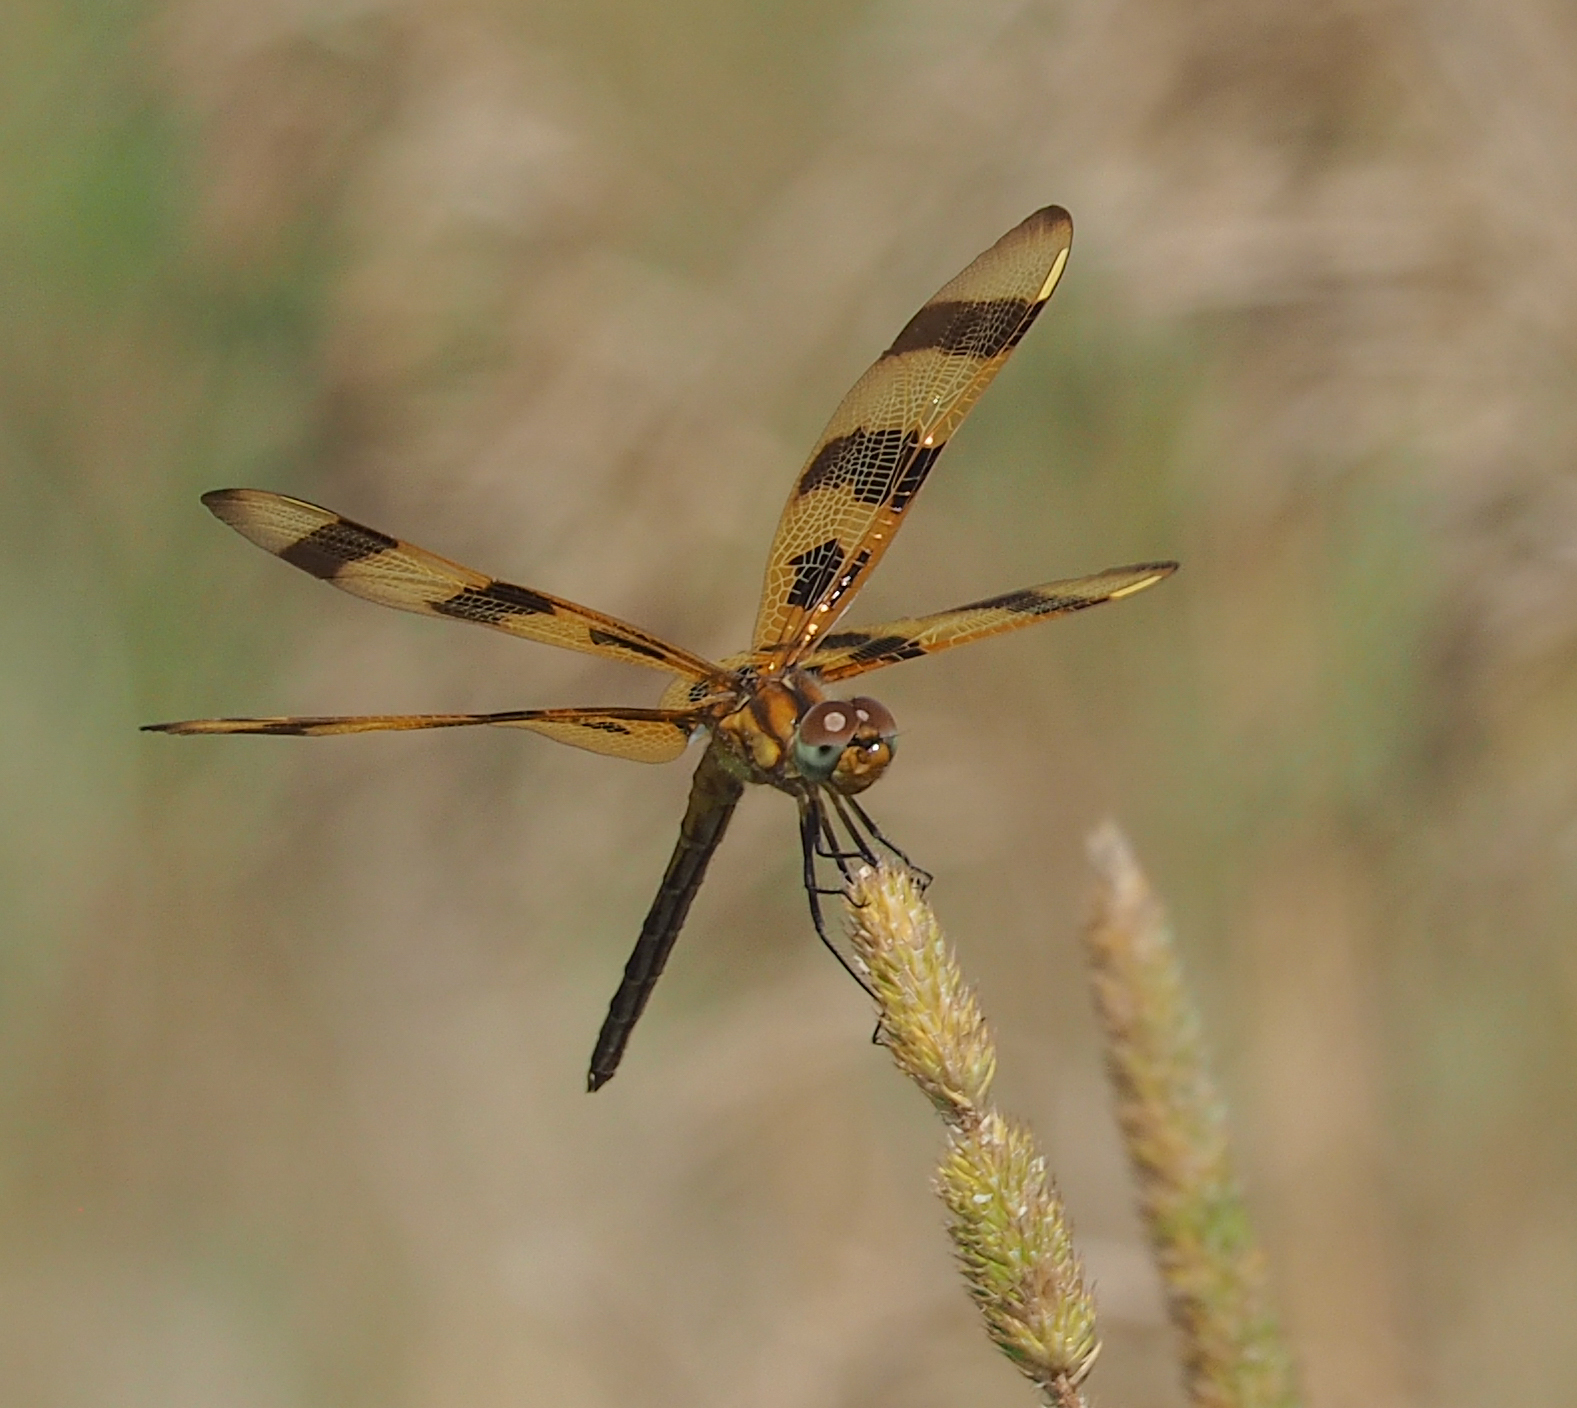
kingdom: Animalia
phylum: Arthropoda
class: Insecta
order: Odonata
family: Libellulidae
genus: Celithemis
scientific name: Celithemis eponina
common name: Halloween pennant
